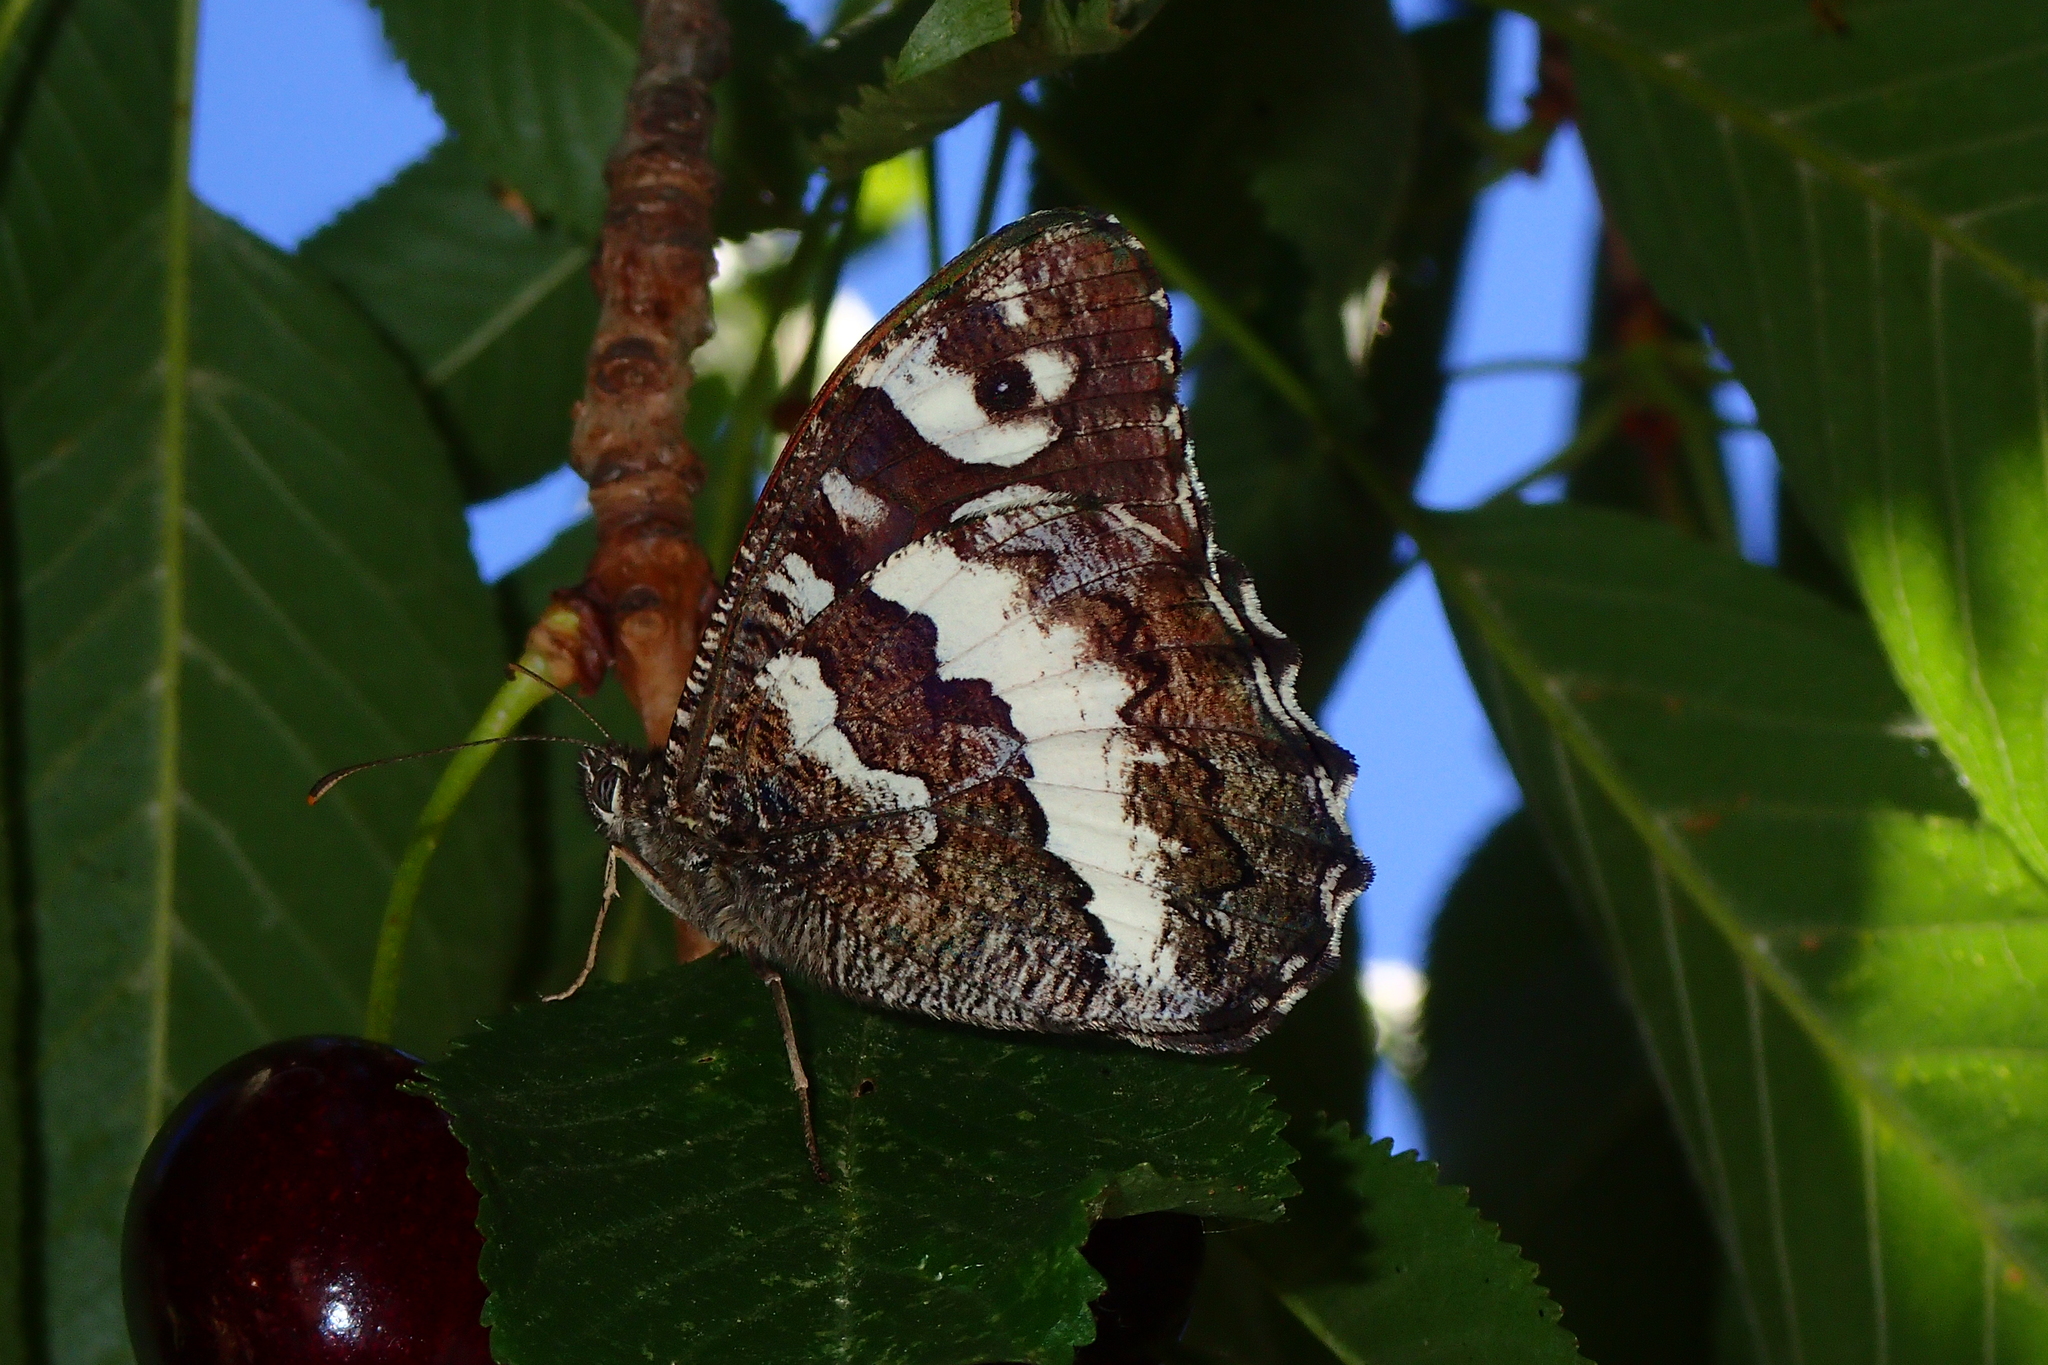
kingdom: Animalia
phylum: Arthropoda
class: Insecta
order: Lepidoptera
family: Lycaenidae
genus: Loweia
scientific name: Loweia tityrus
